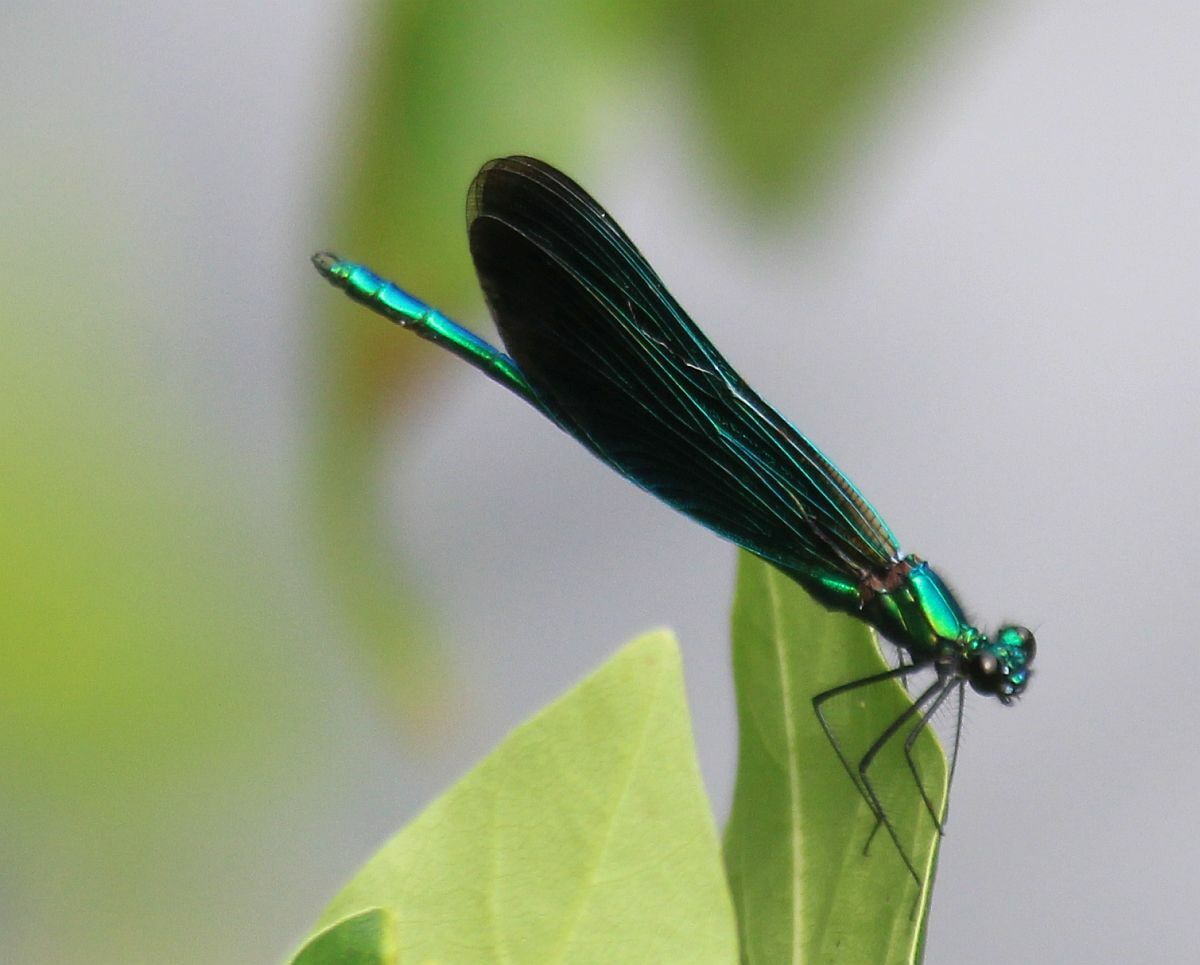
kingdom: Animalia
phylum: Arthropoda
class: Insecta
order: Odonata
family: Calopterygidae
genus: Calopteryx
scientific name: Calopteryx virgo
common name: Beautiful demoiselle
